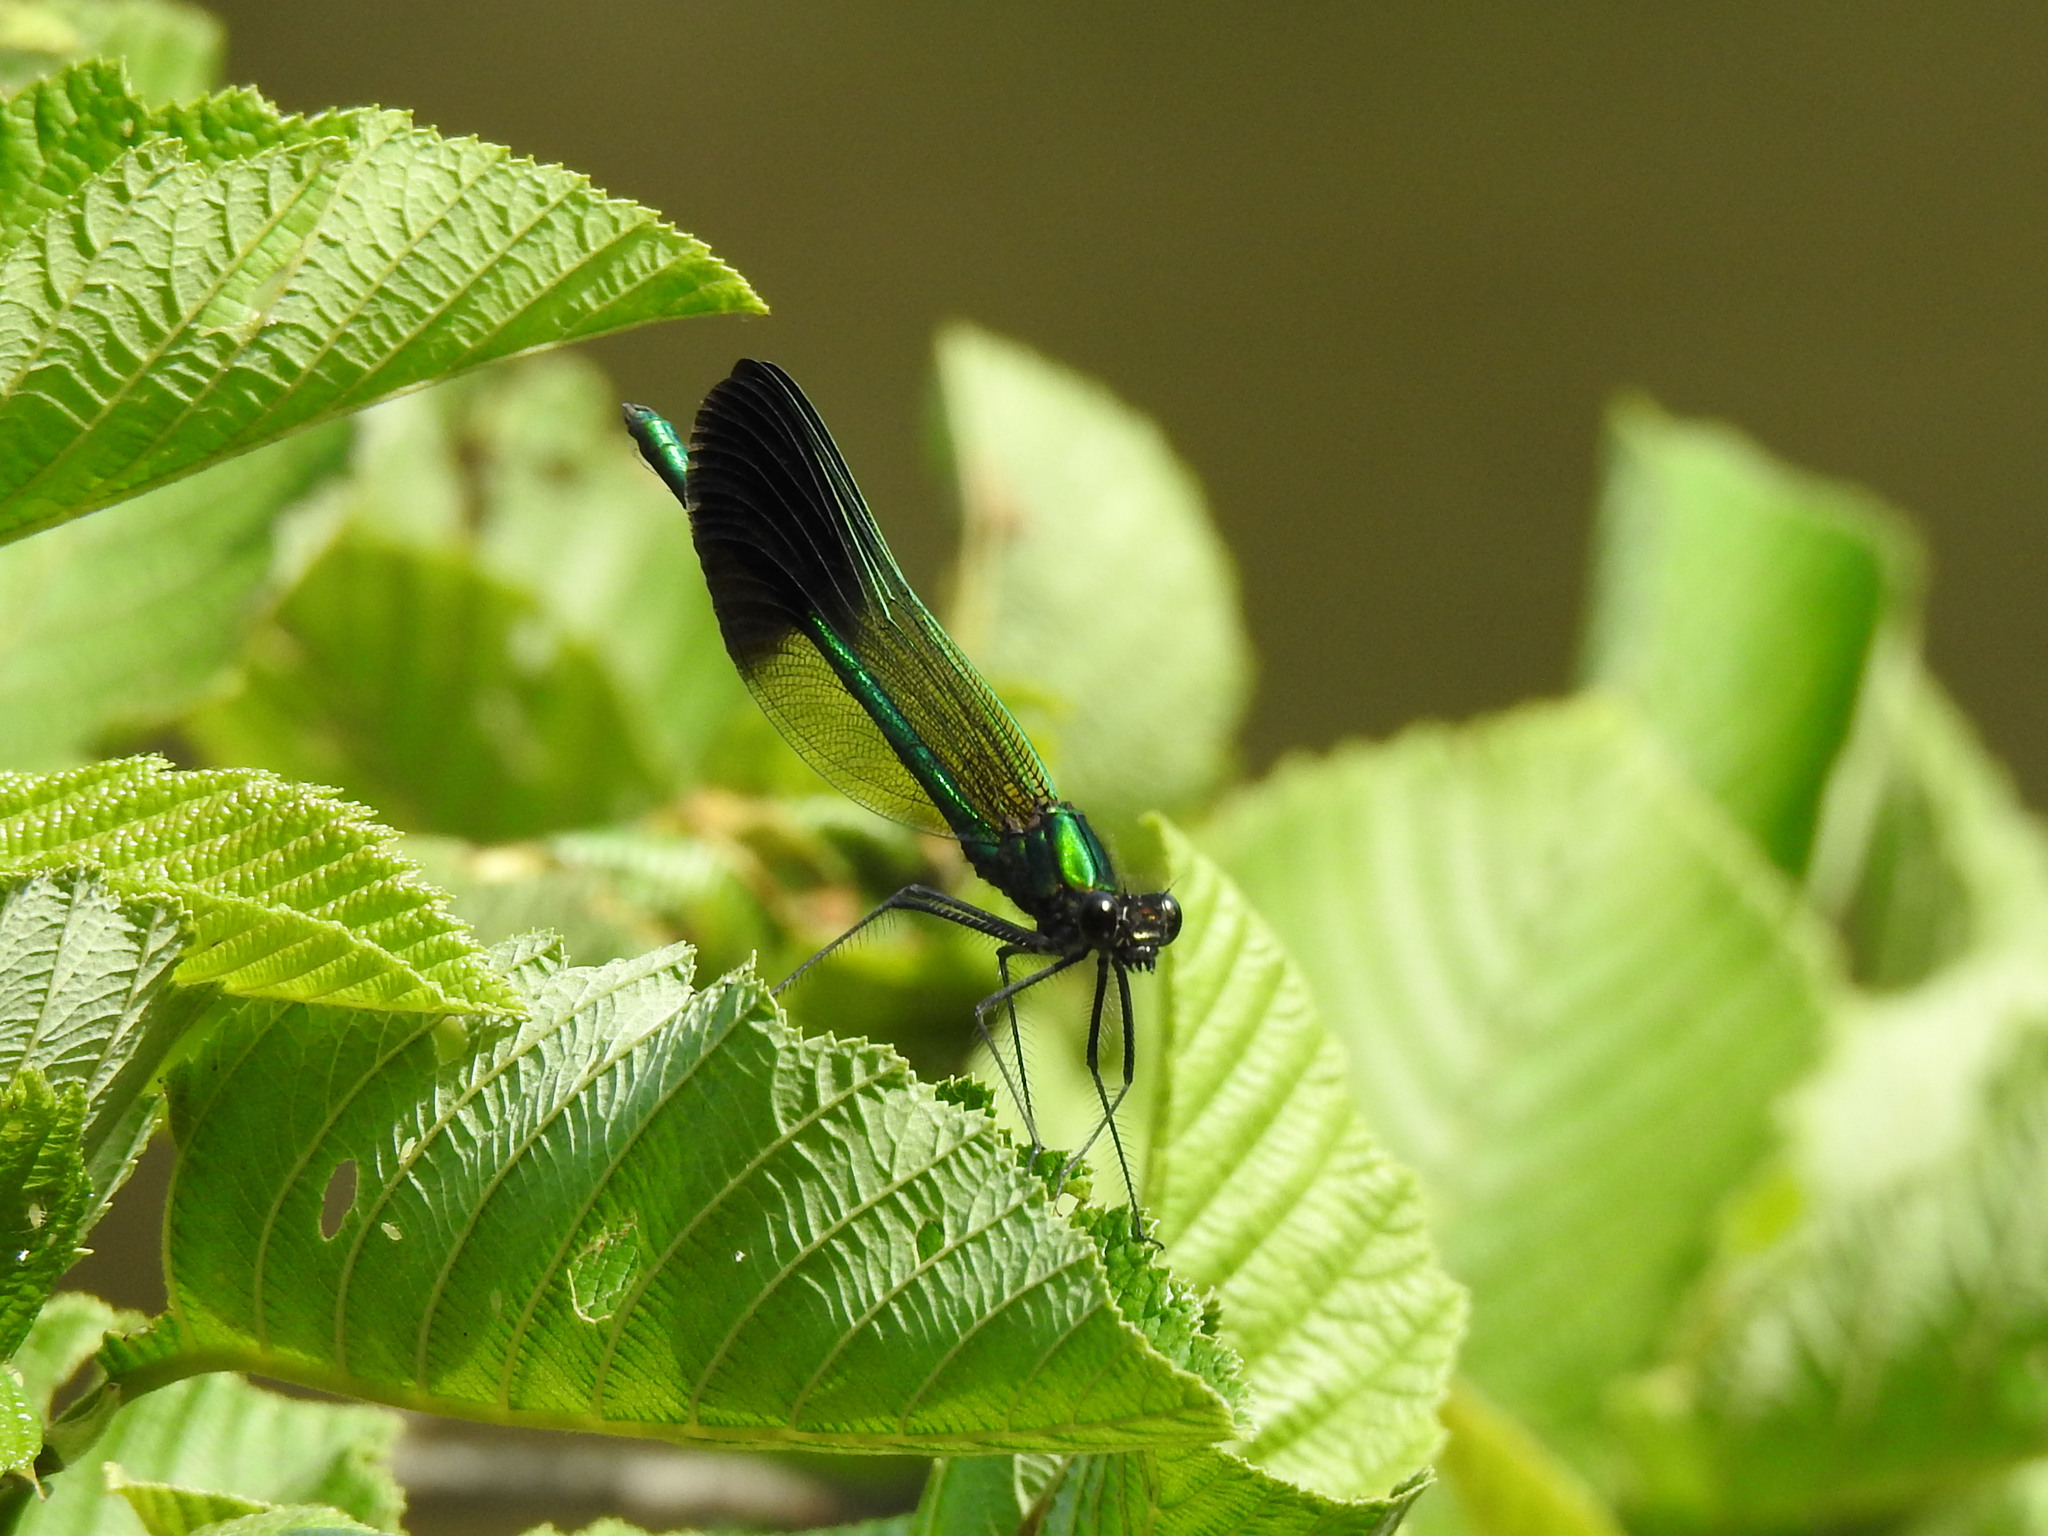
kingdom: Animalia
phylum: Arthropoda
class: Insecta
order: Odonata
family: Calopterygidae
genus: Calopteryx
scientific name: Calopteryx aequabilis
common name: River jewelwing
